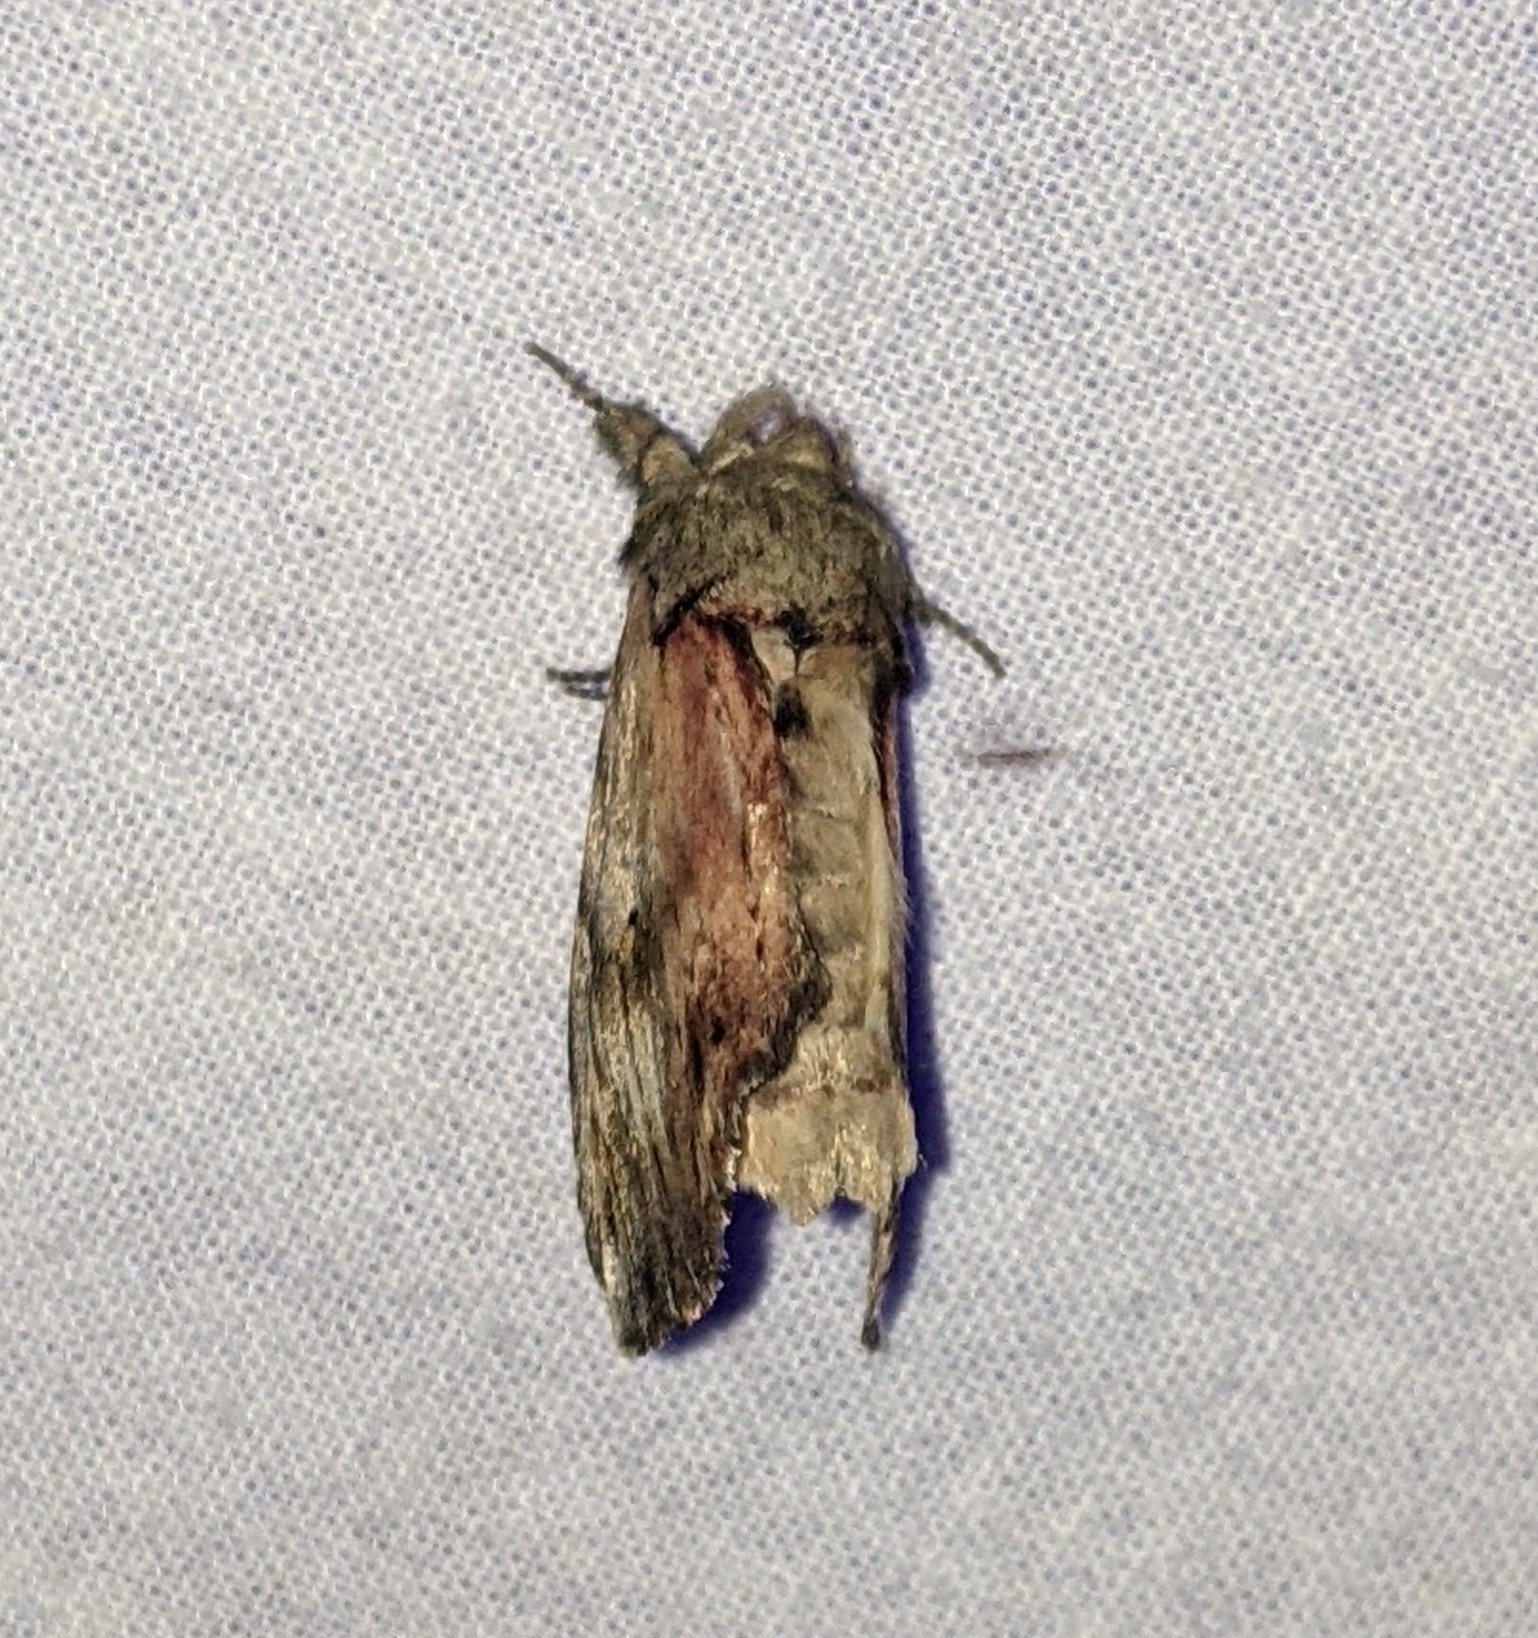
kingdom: Animalia
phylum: Arthropoda
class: Insecta
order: Lepidoptera
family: Notodontidae
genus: Schizura
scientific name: Schizura
